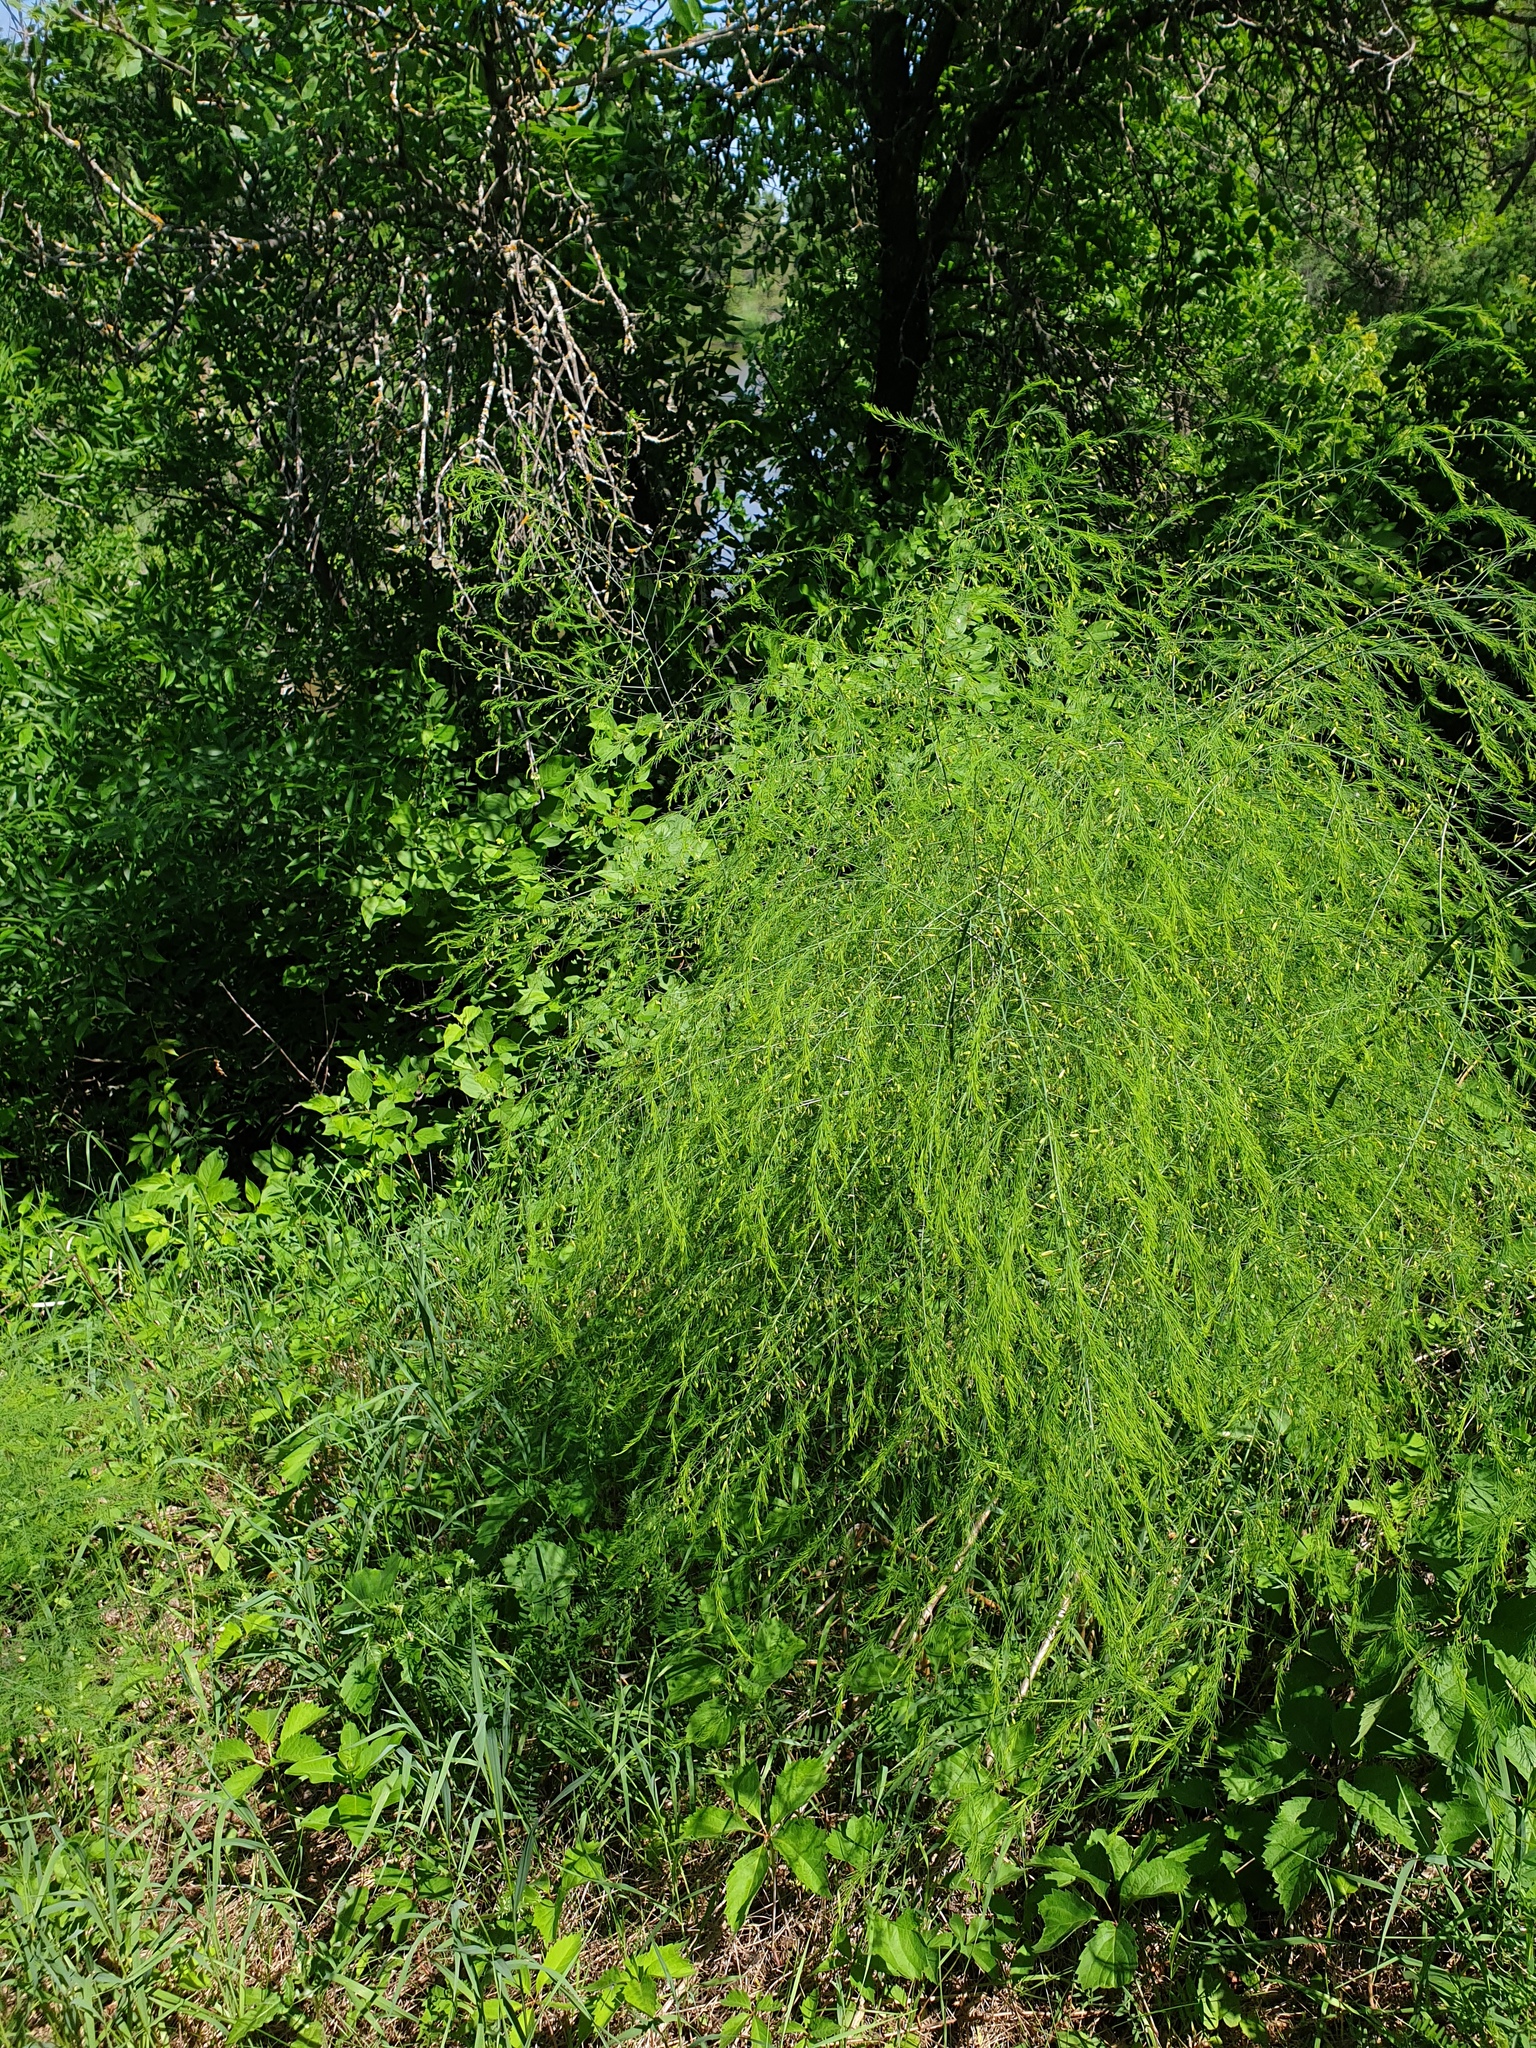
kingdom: Plantae
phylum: Tracheophyta
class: Liliopsida
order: Asparagales
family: Asparagaceae
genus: Asparagus
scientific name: Asparagus officinalis
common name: Garden asparagus
